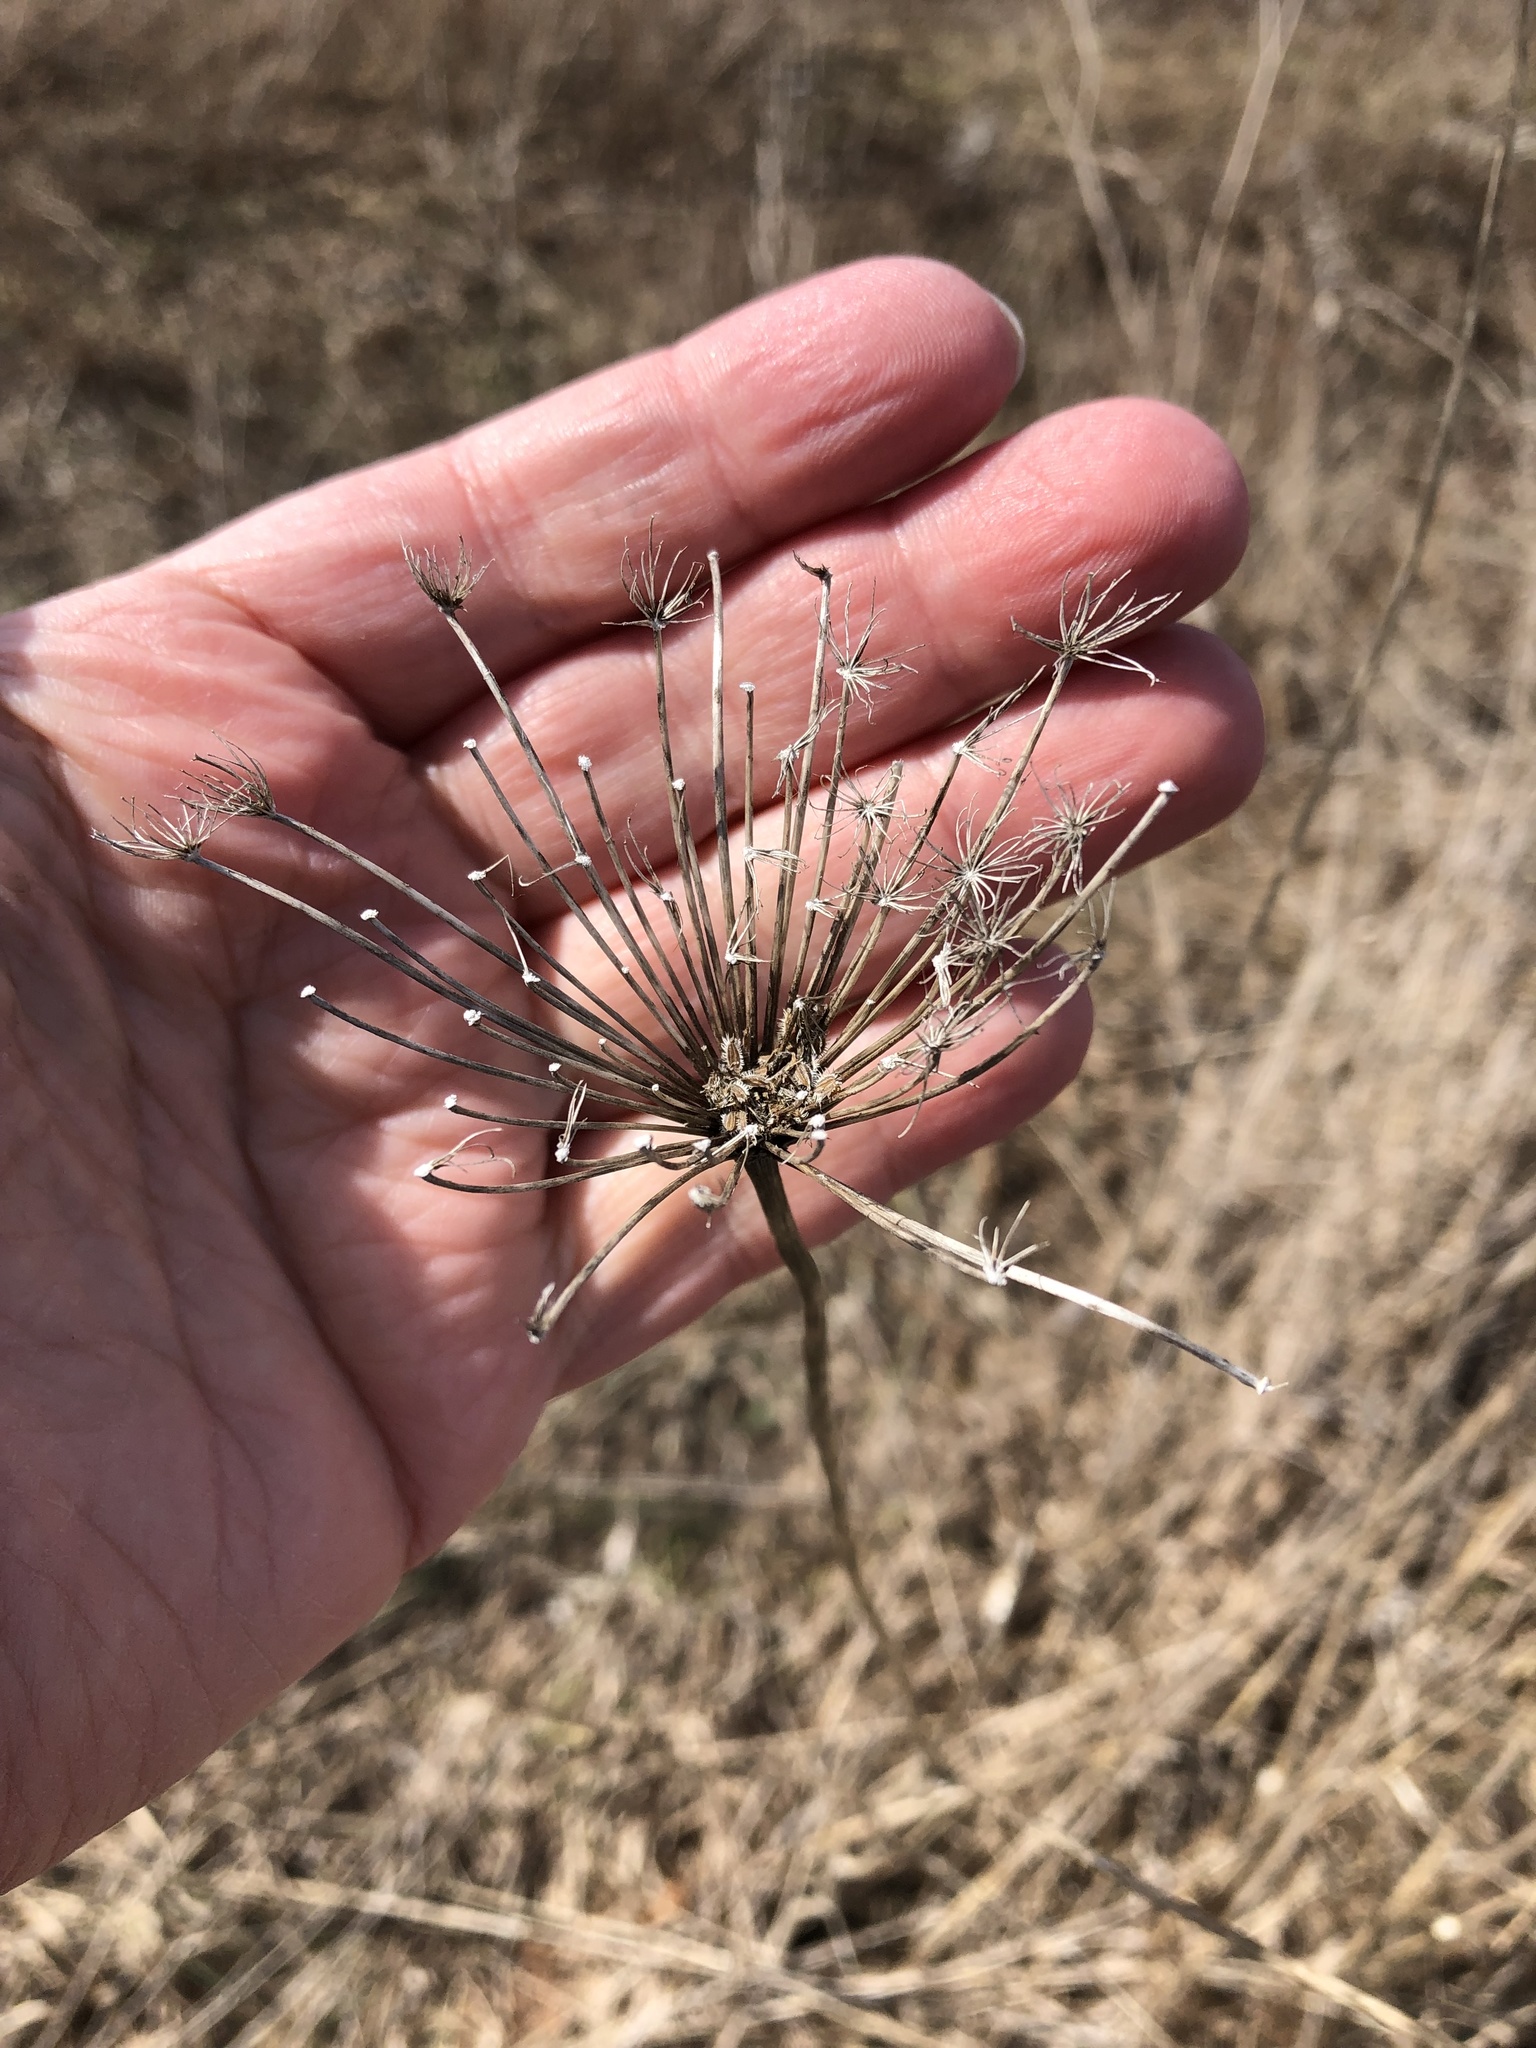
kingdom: Plantae
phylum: Tracheophyta
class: Magnoliopsida
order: Apiales
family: Apiaceae
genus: Daucus
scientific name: Daucus carota
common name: Wild carrot
